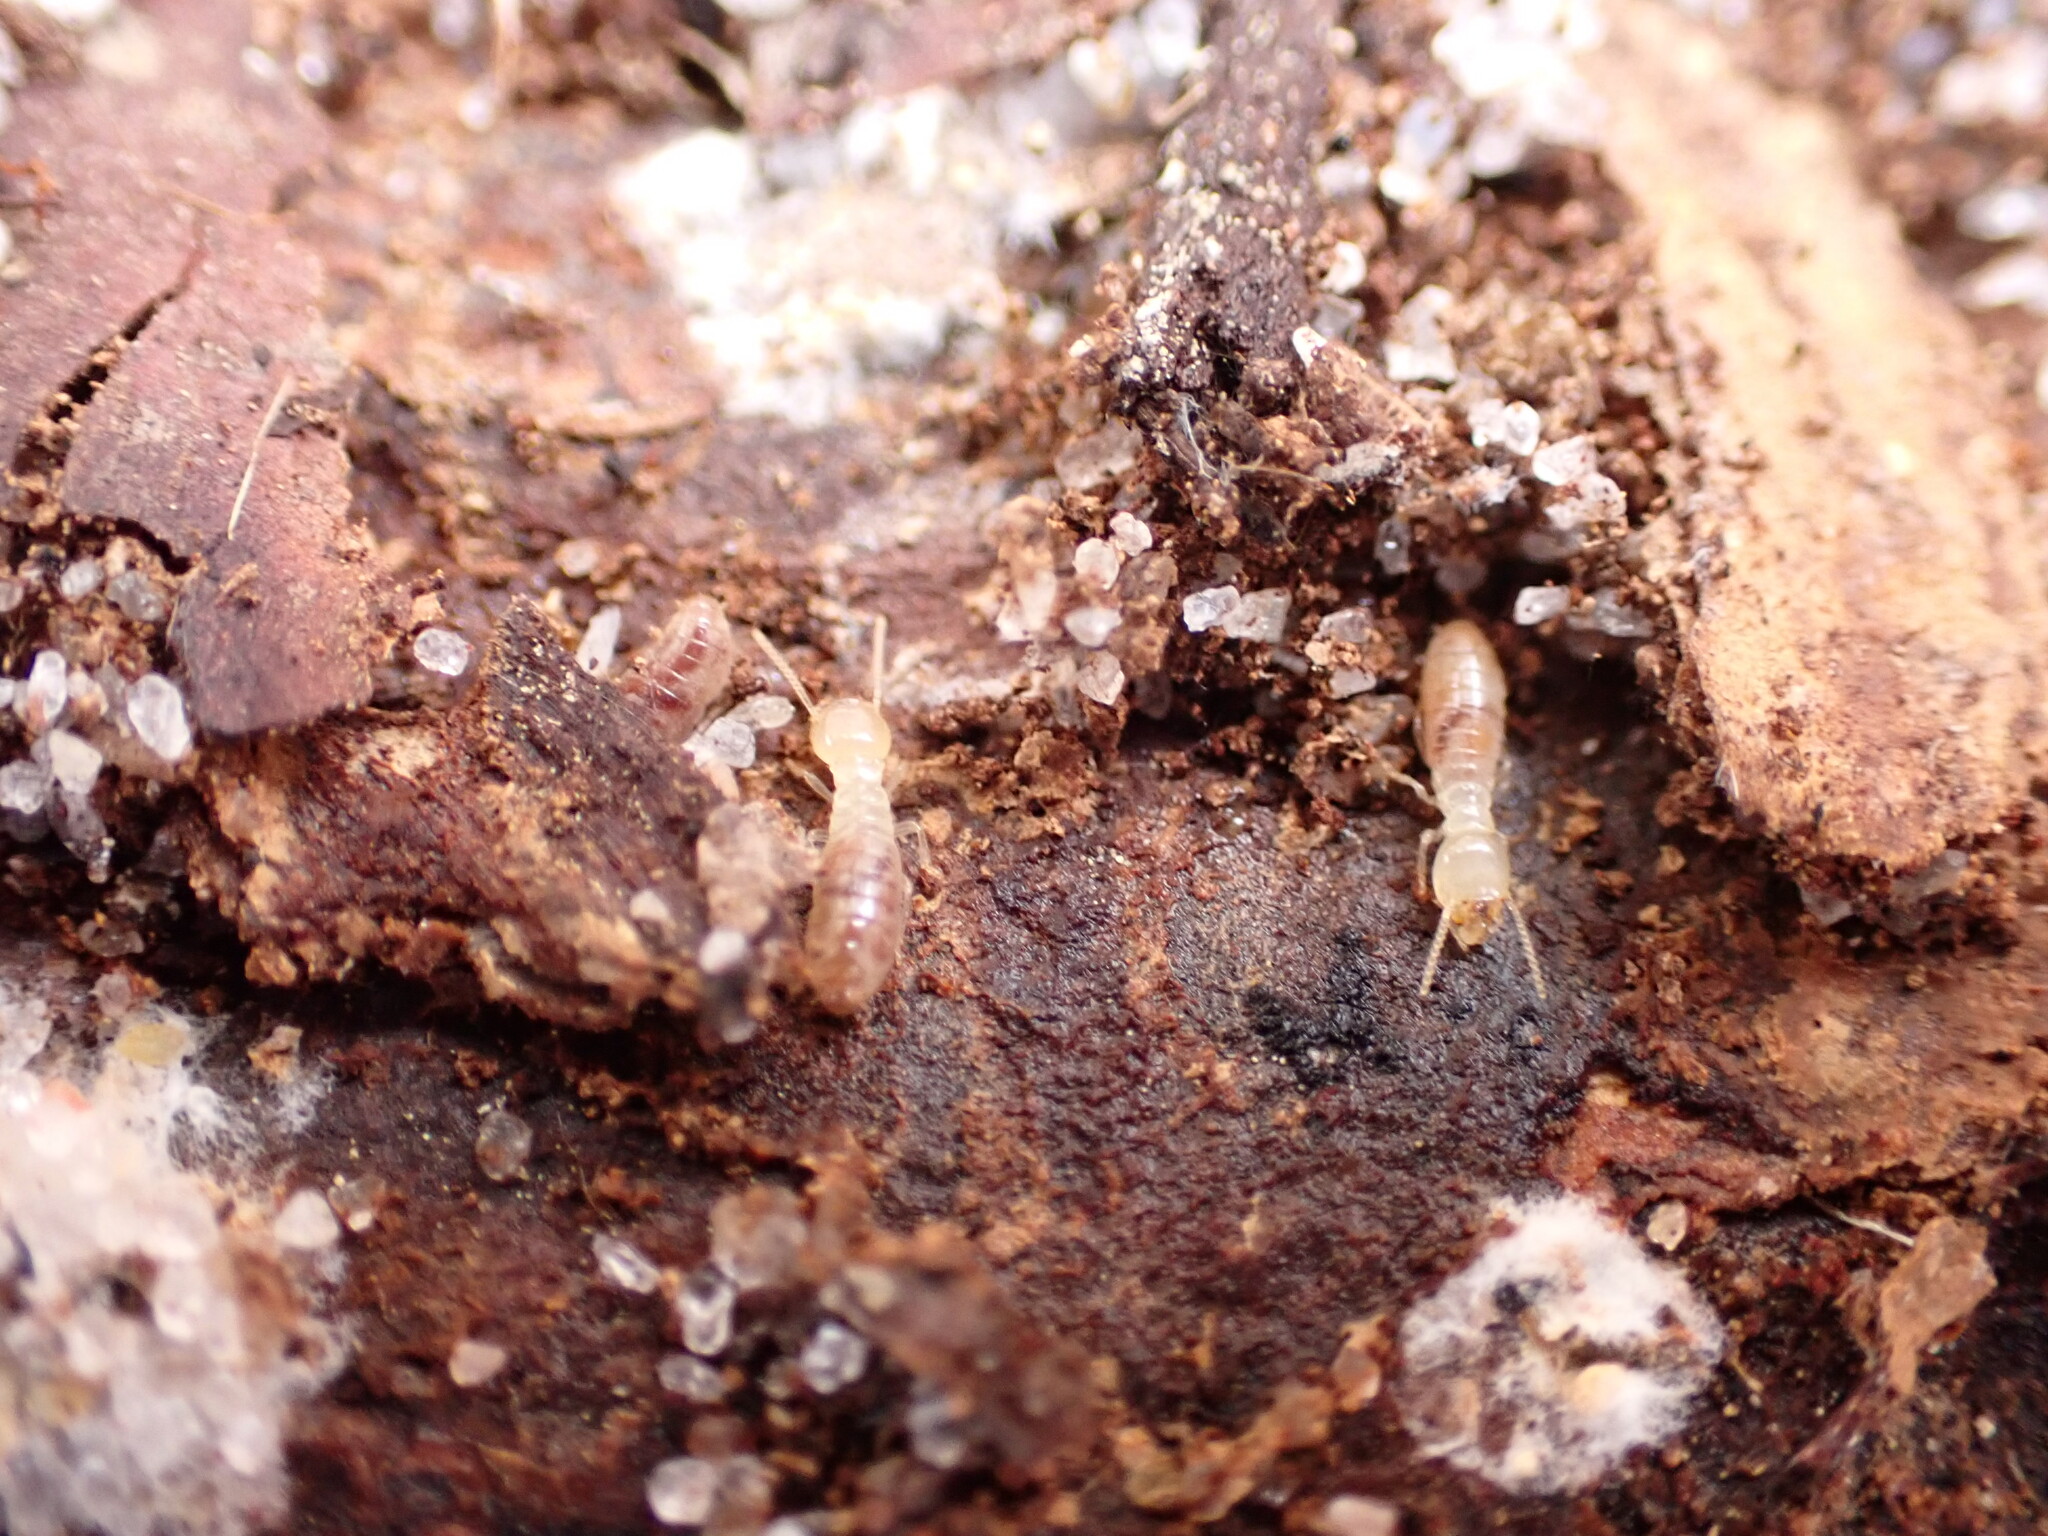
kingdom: Animalia
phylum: Arthropoda
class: Insecta
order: Blattodea
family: Rhinotermitidae
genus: Reticulitermes
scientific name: Reticulitermes flavipes
